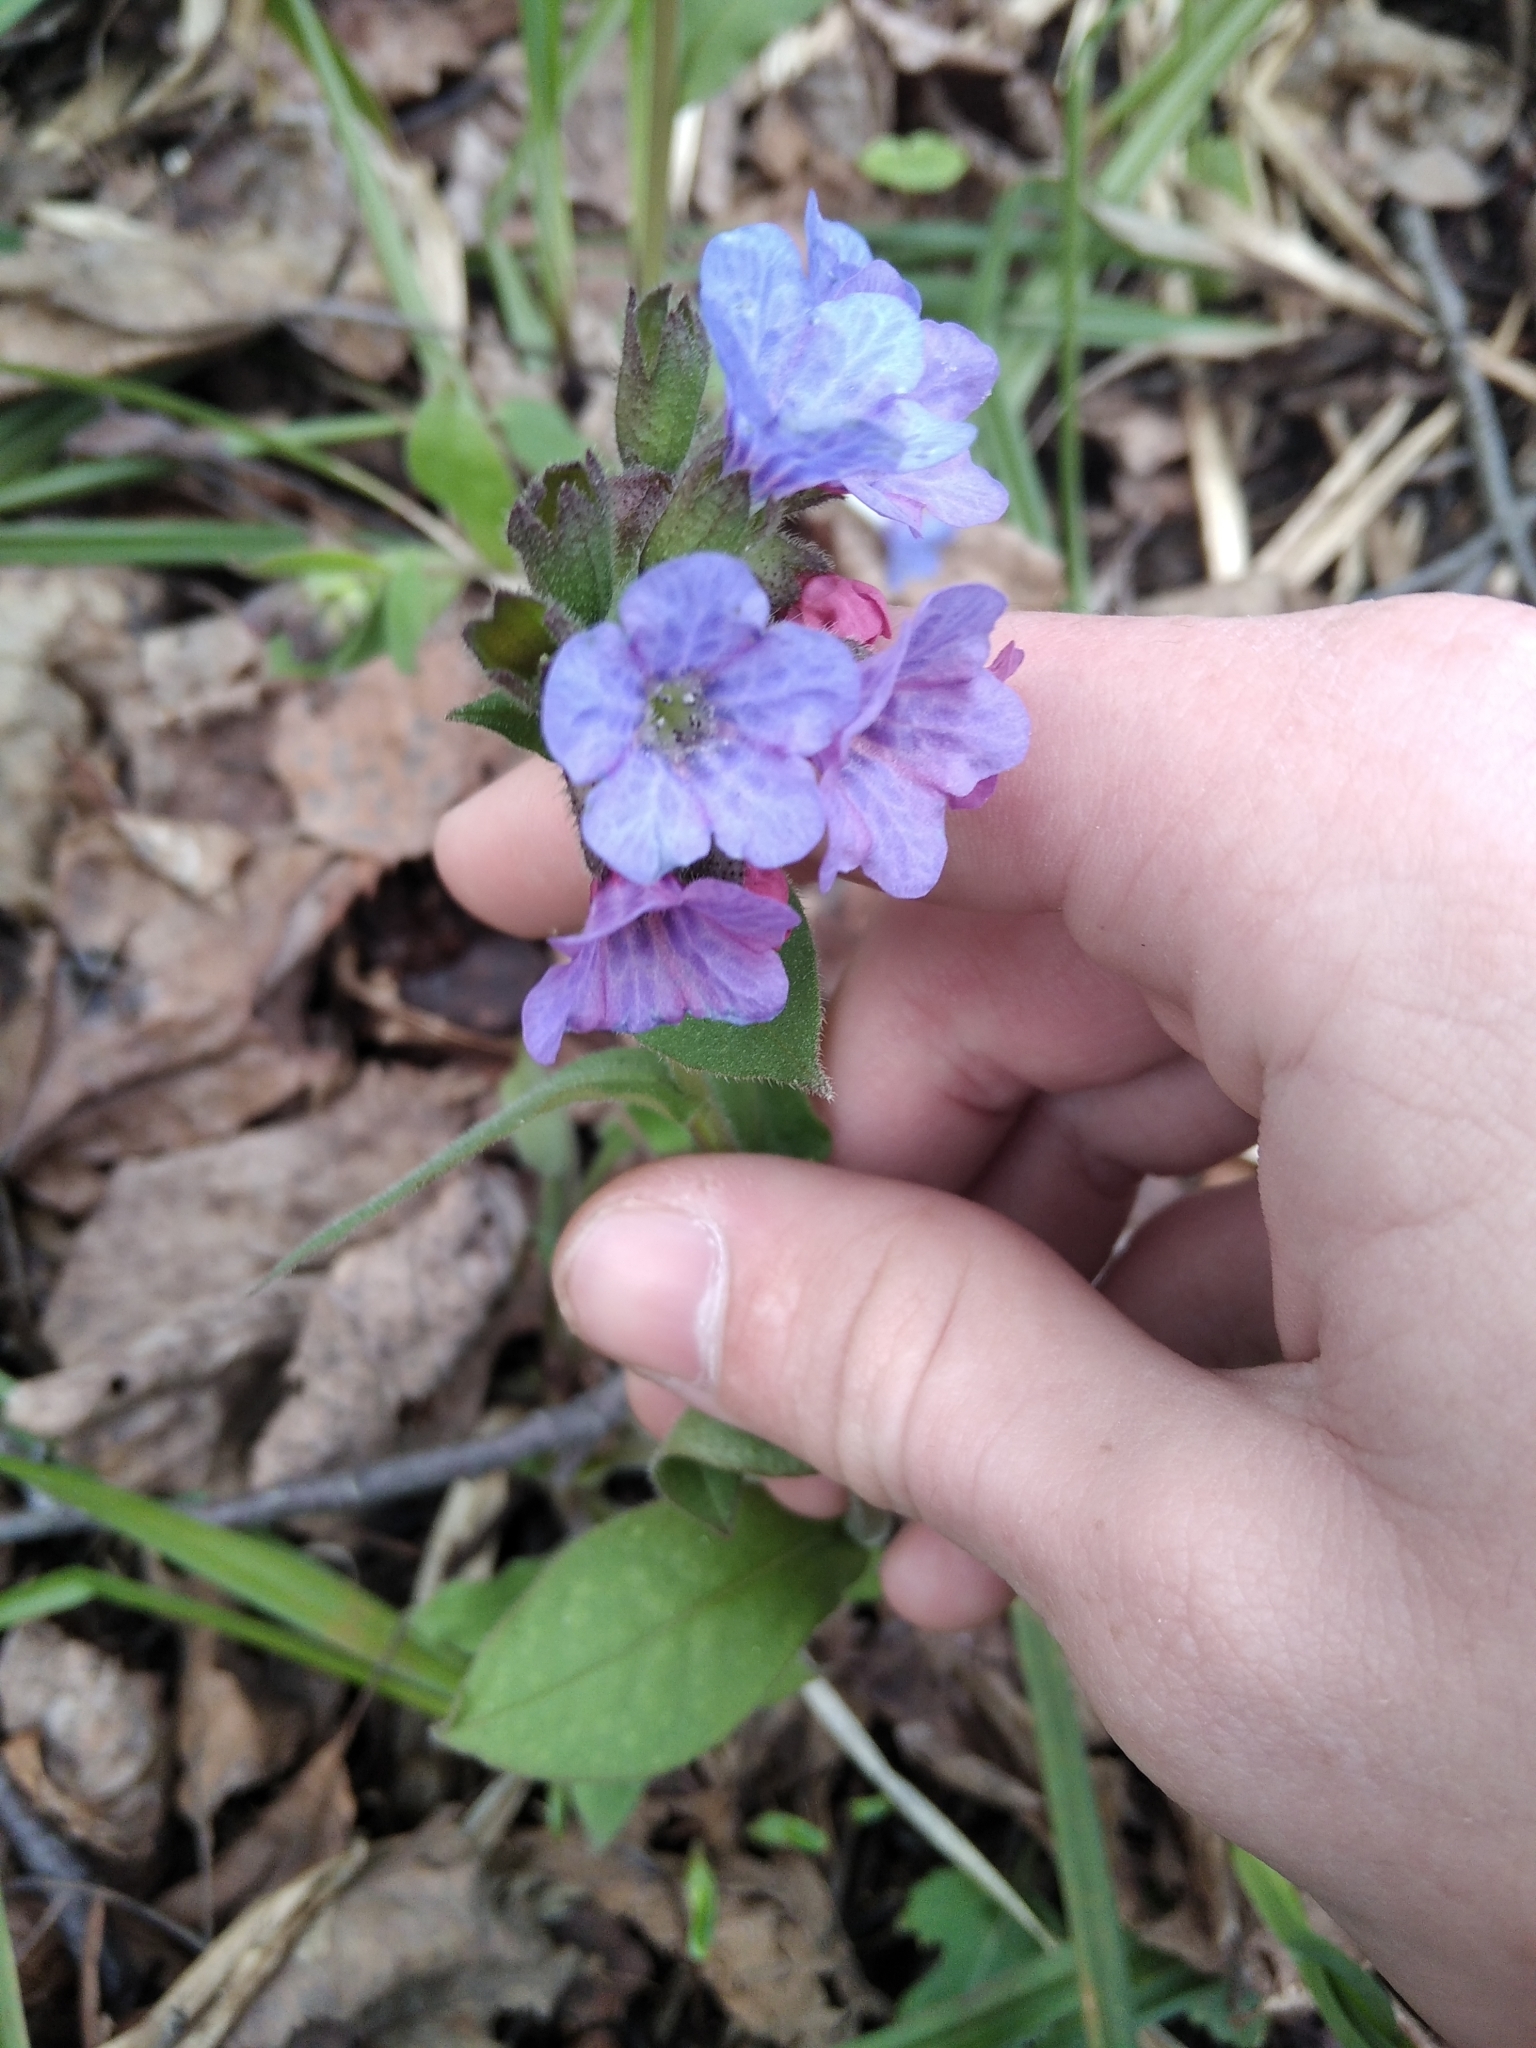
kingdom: Plantae
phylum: Tracheophyta
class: Magnoliopsida
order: Boraginales
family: Boraginaceae
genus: Pulmonaria
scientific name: Pulmonaria obscura
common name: Suffolk lungwort
